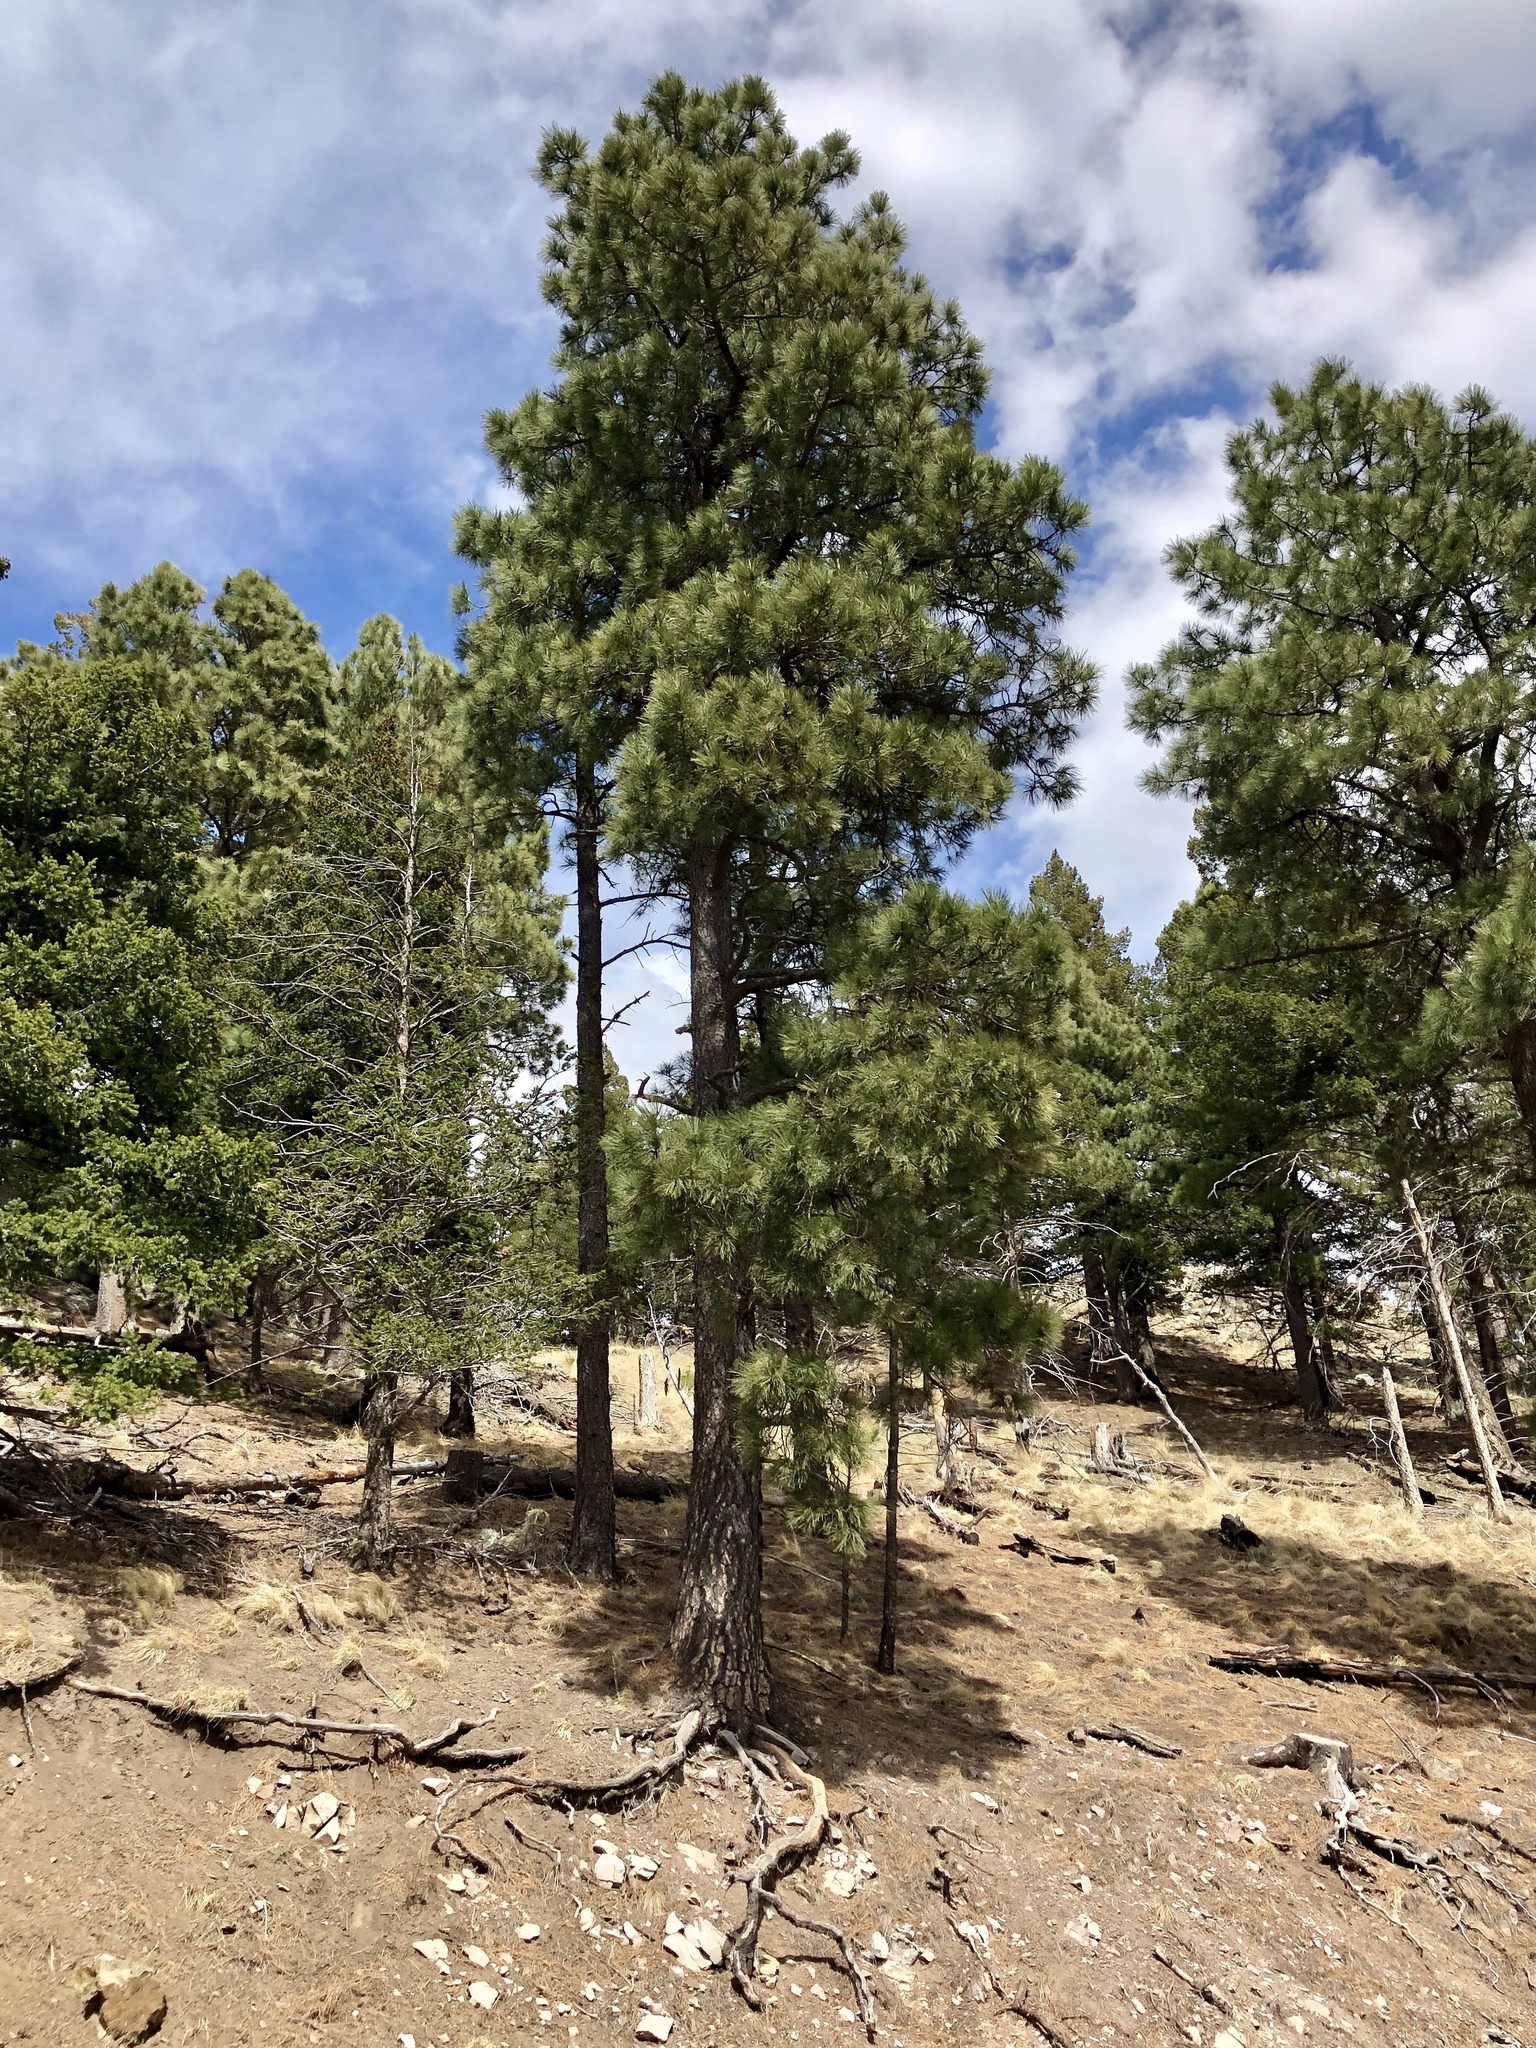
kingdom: Plantae
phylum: Tracheophyta
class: Pinopsida
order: Pinales
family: Pinaceae
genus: Pinus
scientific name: Pinus ponderosa
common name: Western yellow-pine
